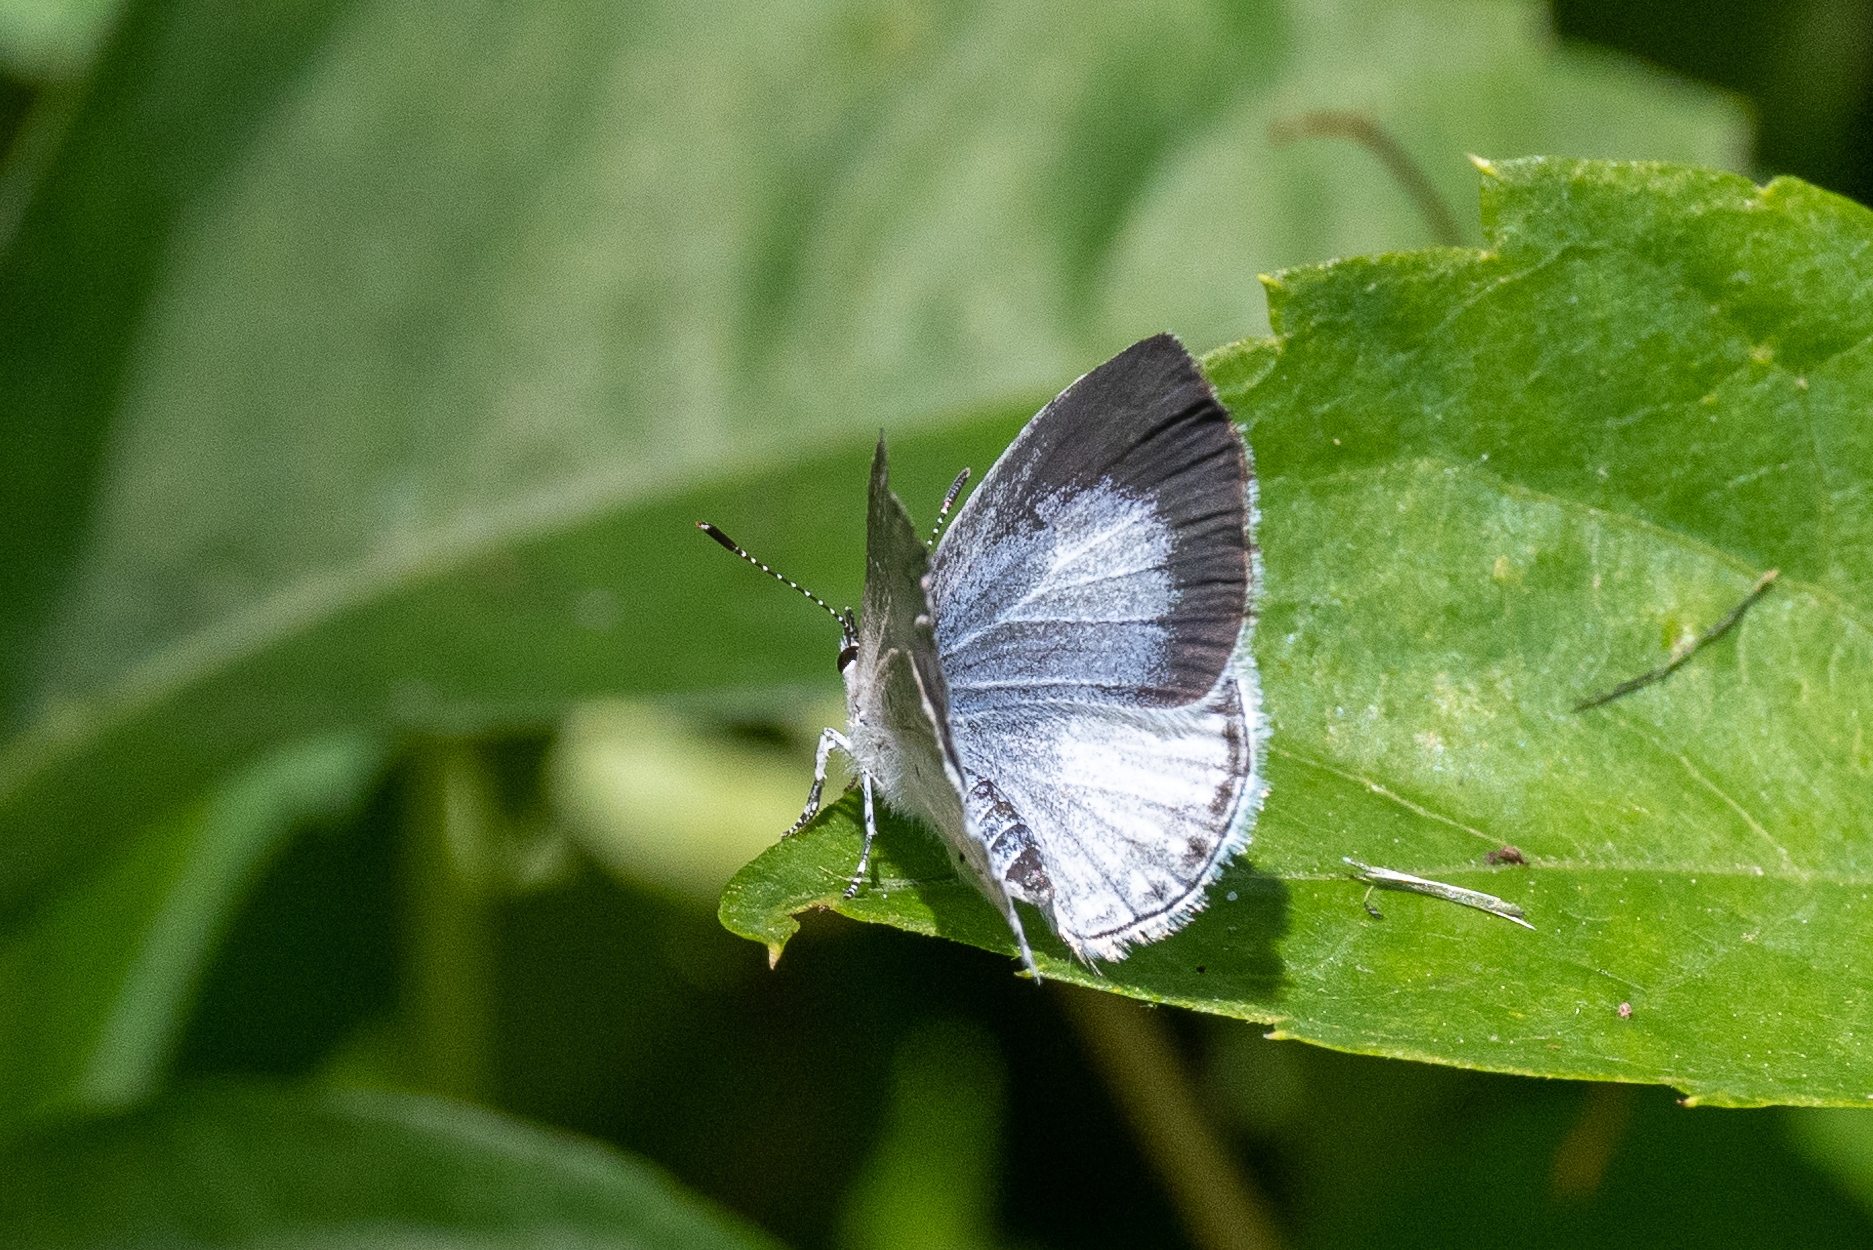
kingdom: Animalia
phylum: Arthropoda
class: Insecta
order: Lepidoptera
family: Lycaenidae
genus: Cyaniris
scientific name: Cyaniris neglecta
